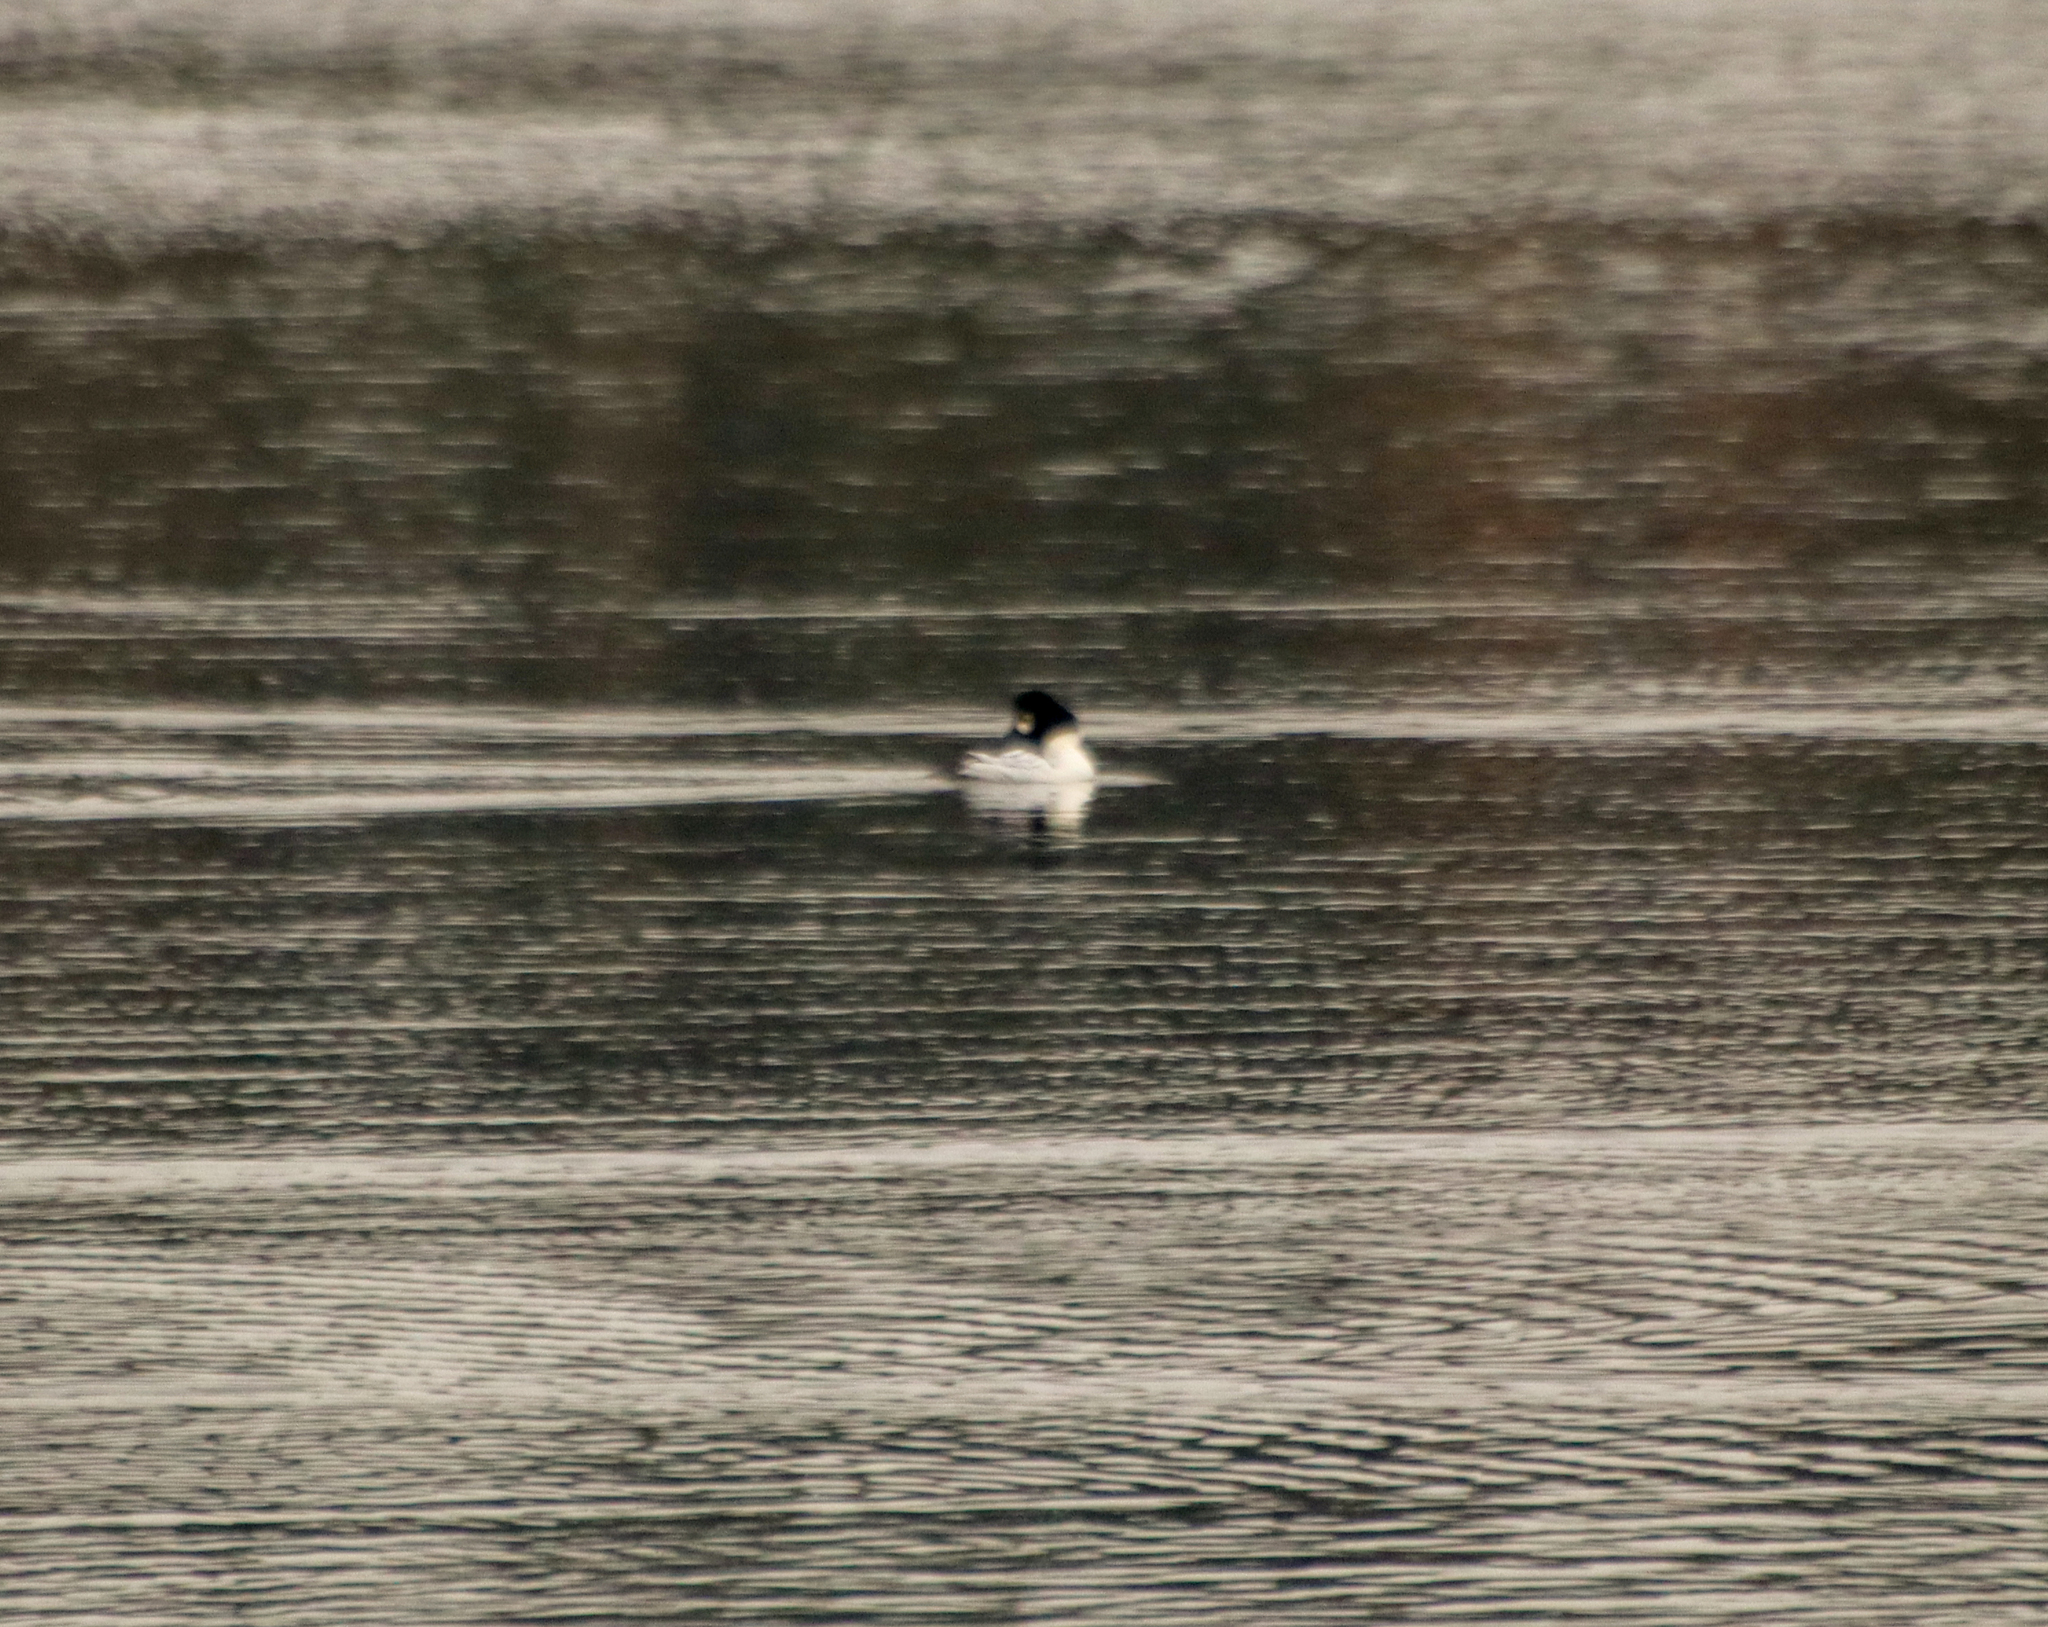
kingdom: Animalia
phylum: Chordata
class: Aves
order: Anseriformes
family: Anatidae
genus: Bucephala
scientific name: Bucephala clangula
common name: Common goldeneye
